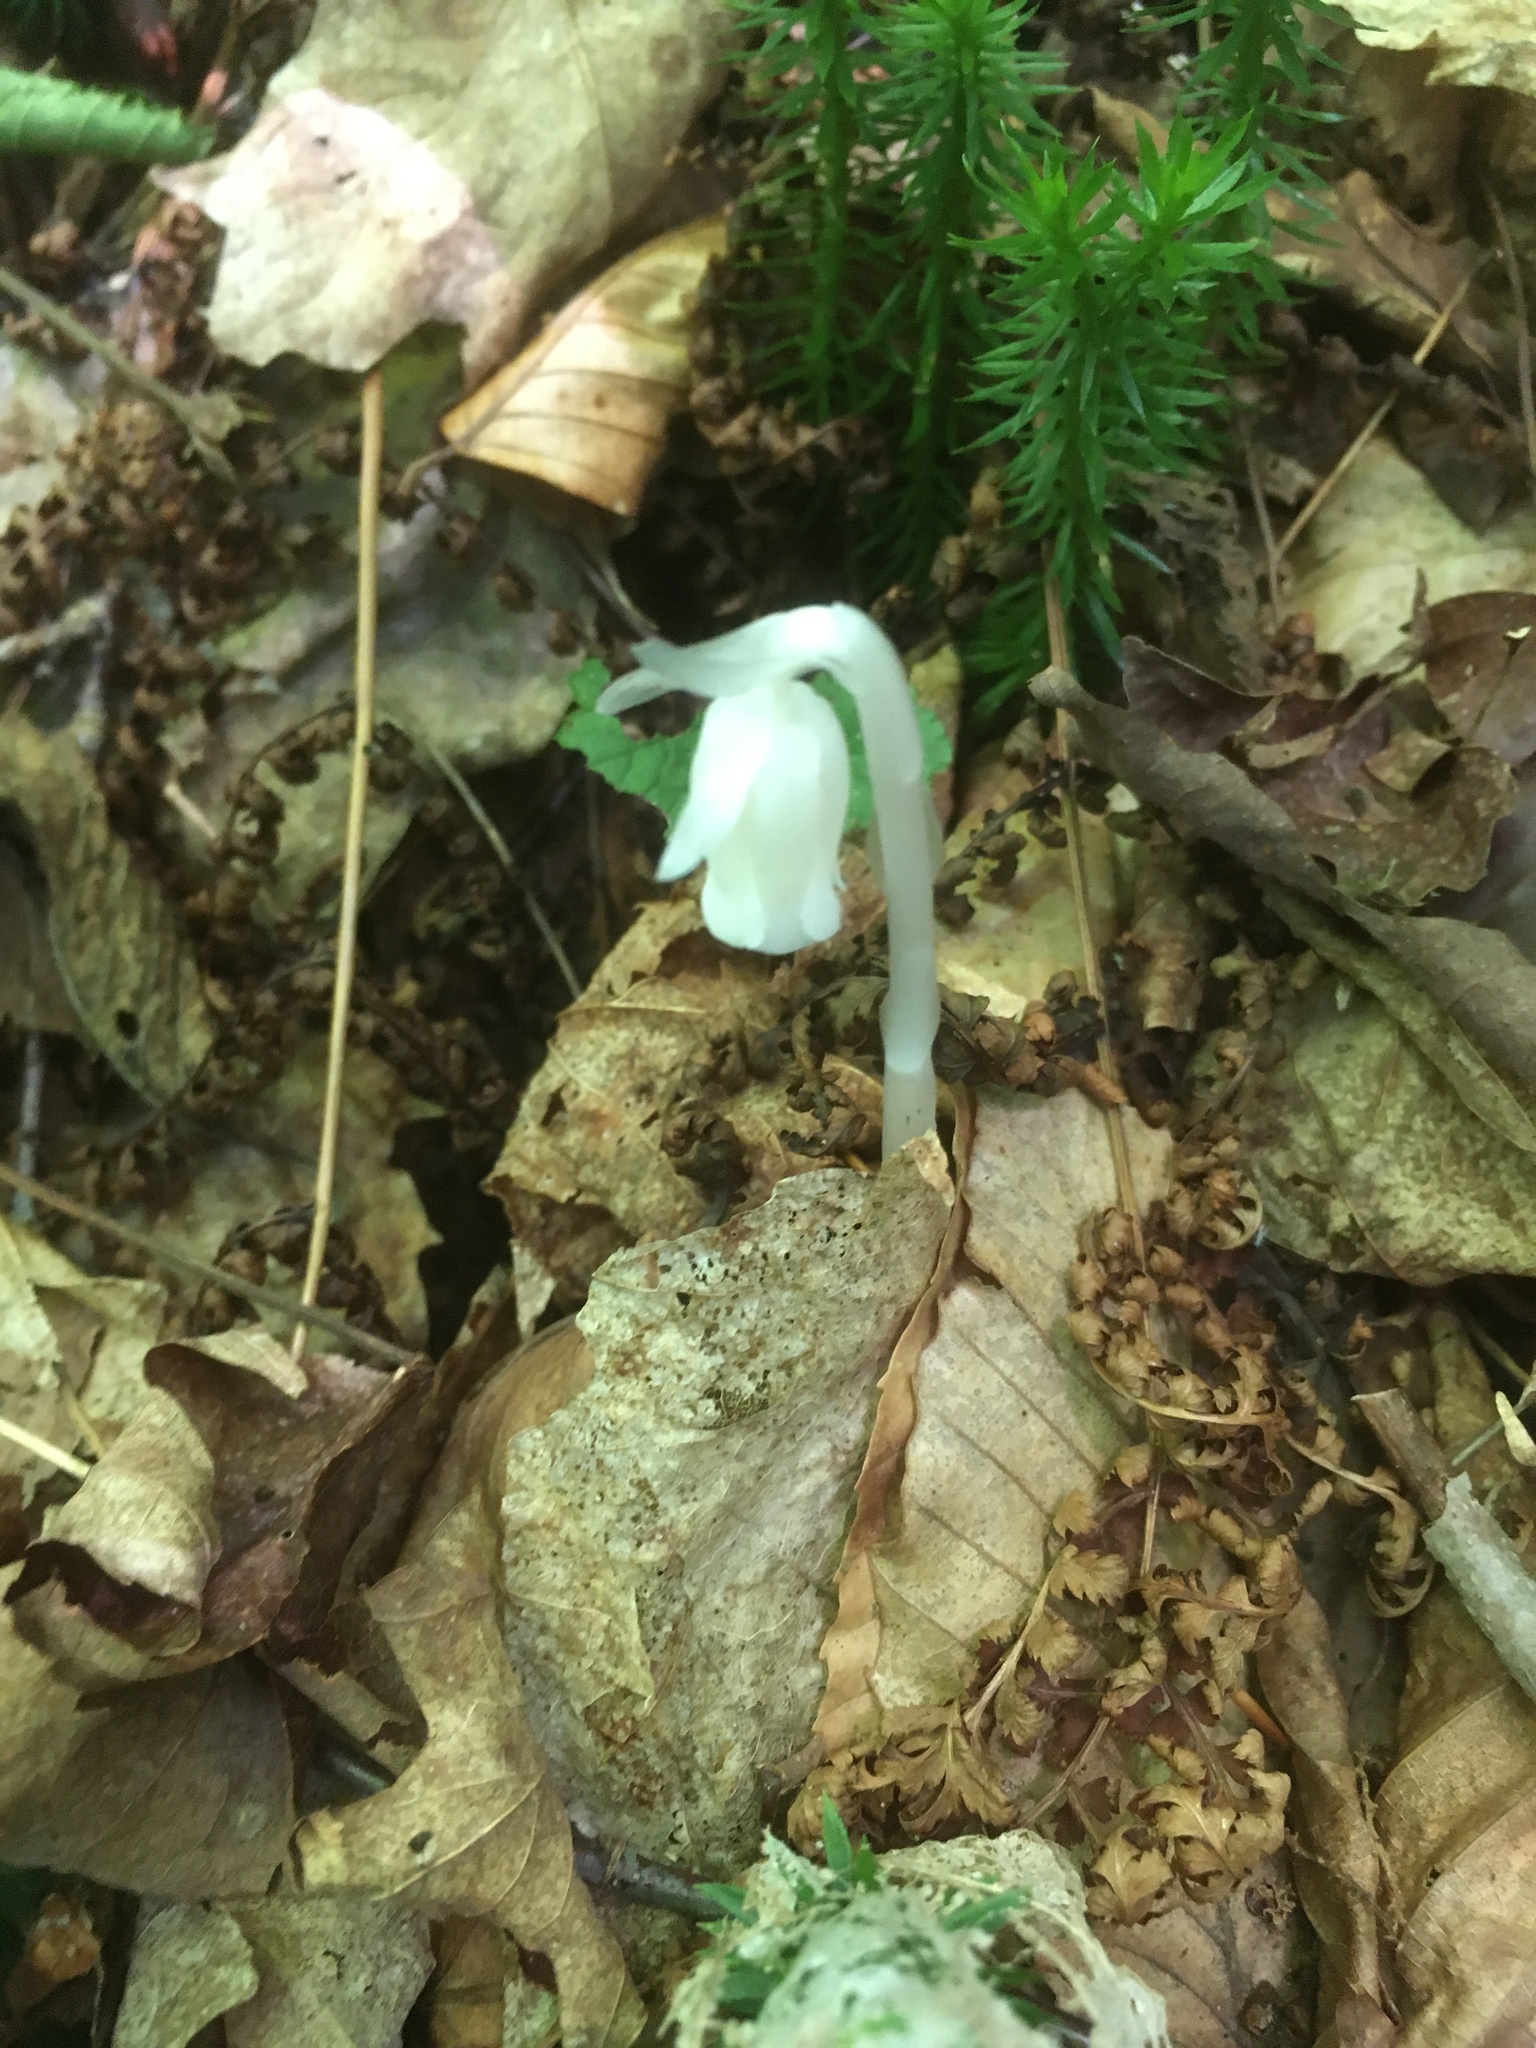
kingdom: Plantae
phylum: Tracheophyta
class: Magnoliopsida
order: Ericales
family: Ericaceae
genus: Monotropa
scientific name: Monotropa uniflora
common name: Convulsion root
